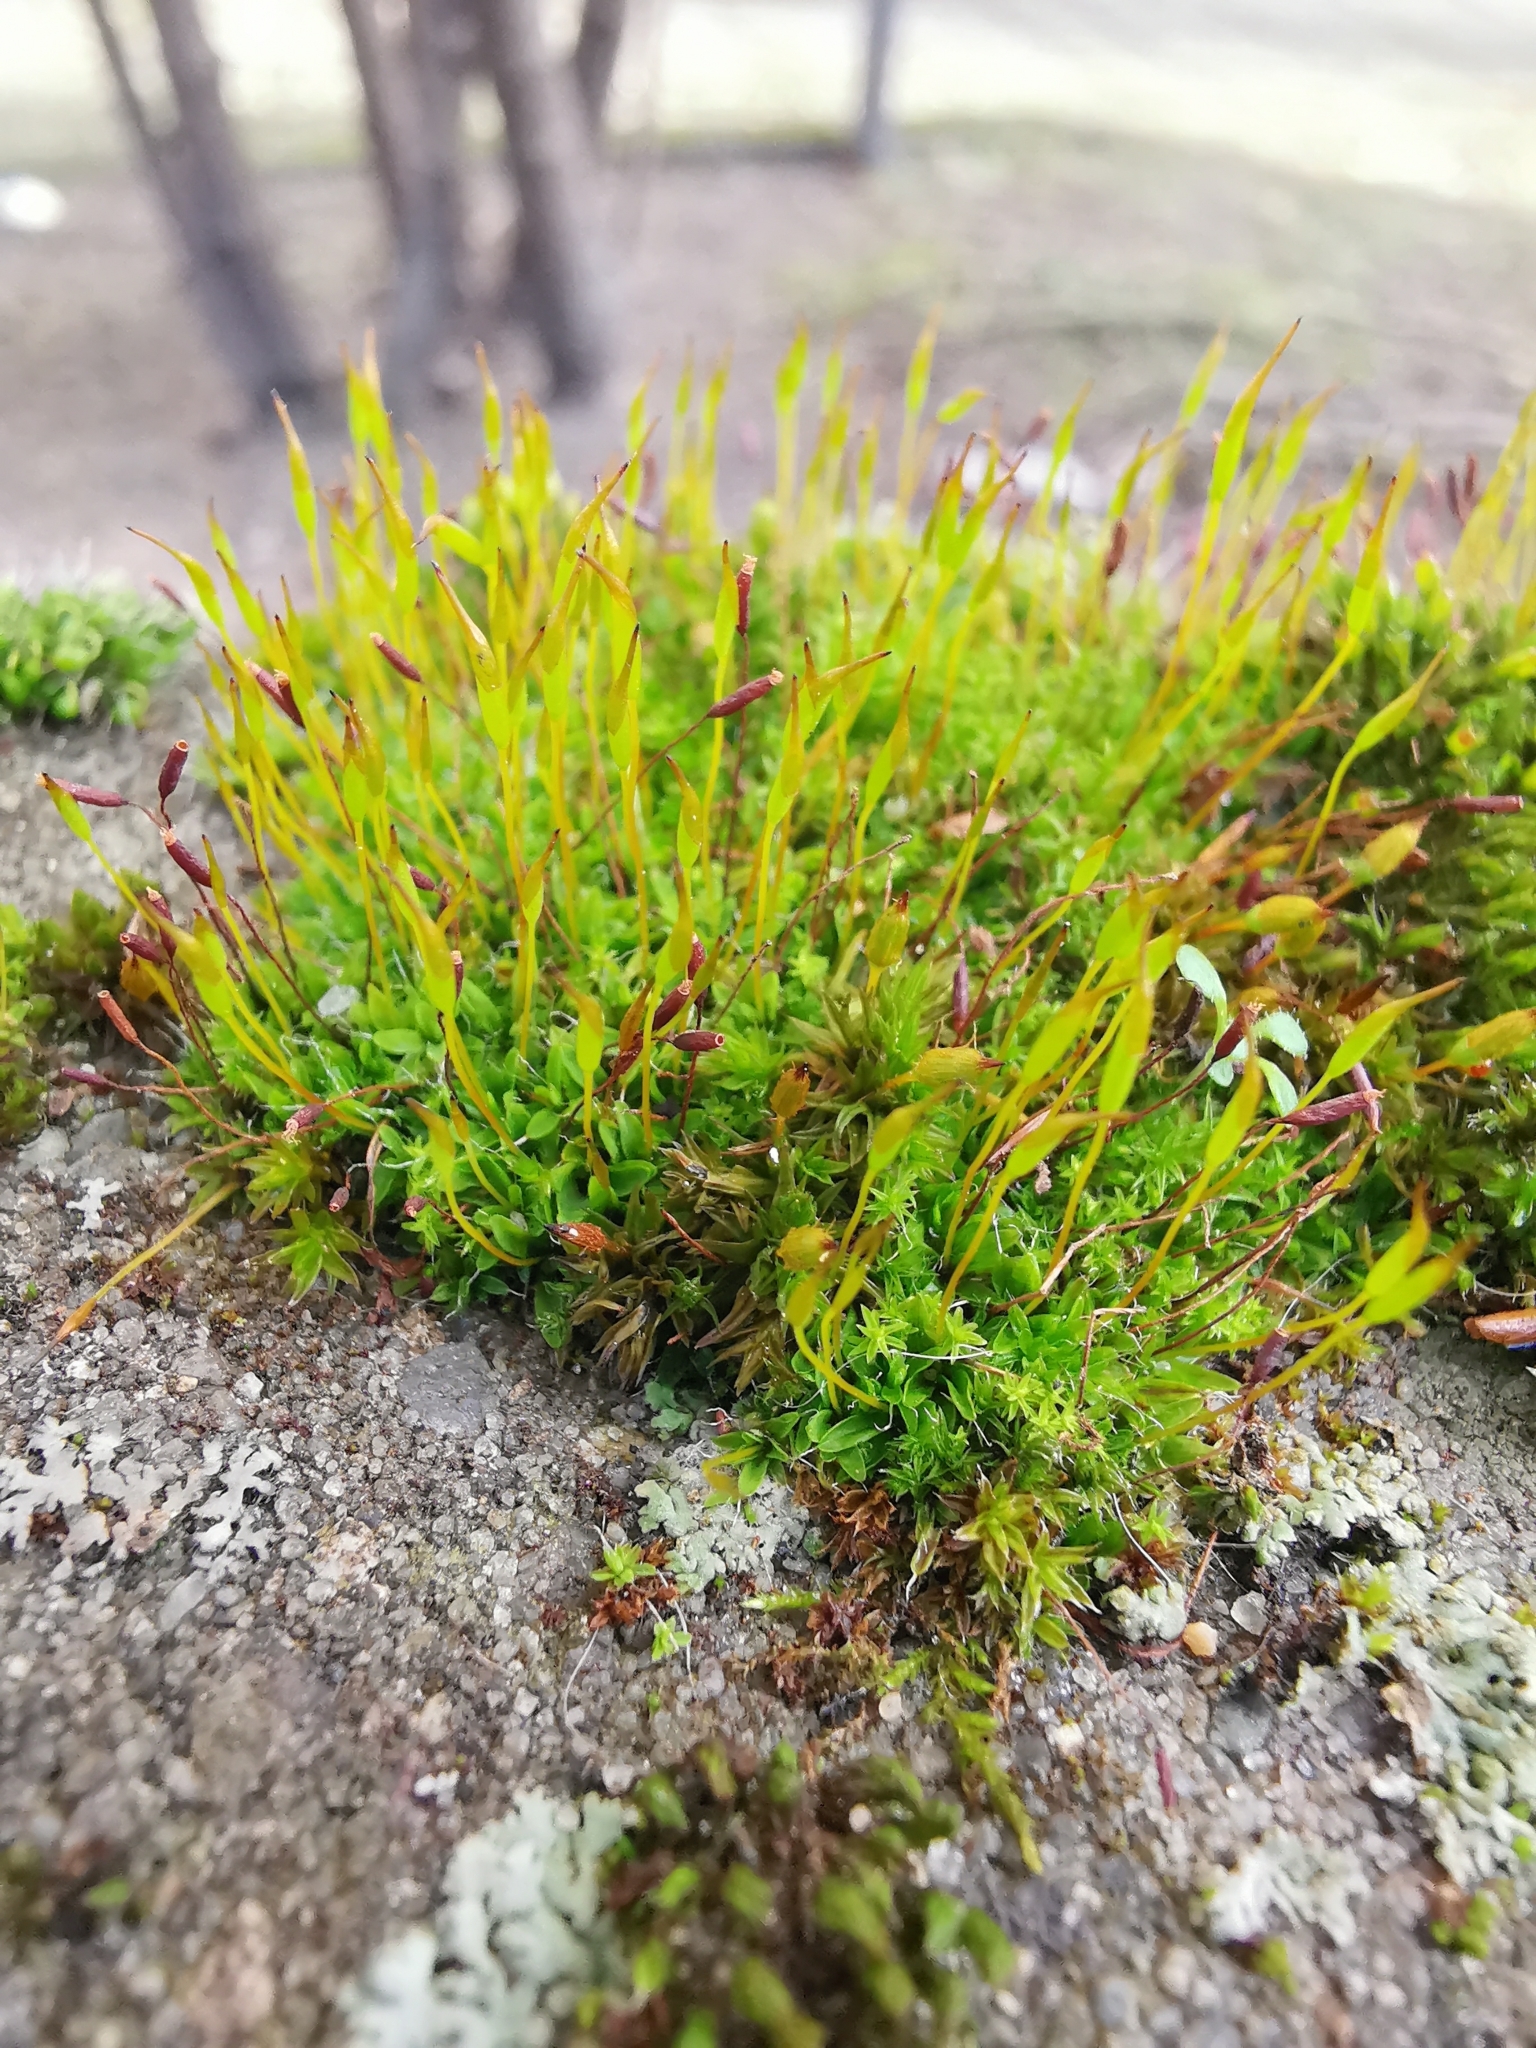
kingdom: Plantae
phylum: Bryophyta
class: Bryopsida
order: Pottiales
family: Pottiaceae
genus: Tortula
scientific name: Tortula muralis
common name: Wall screw-moss
